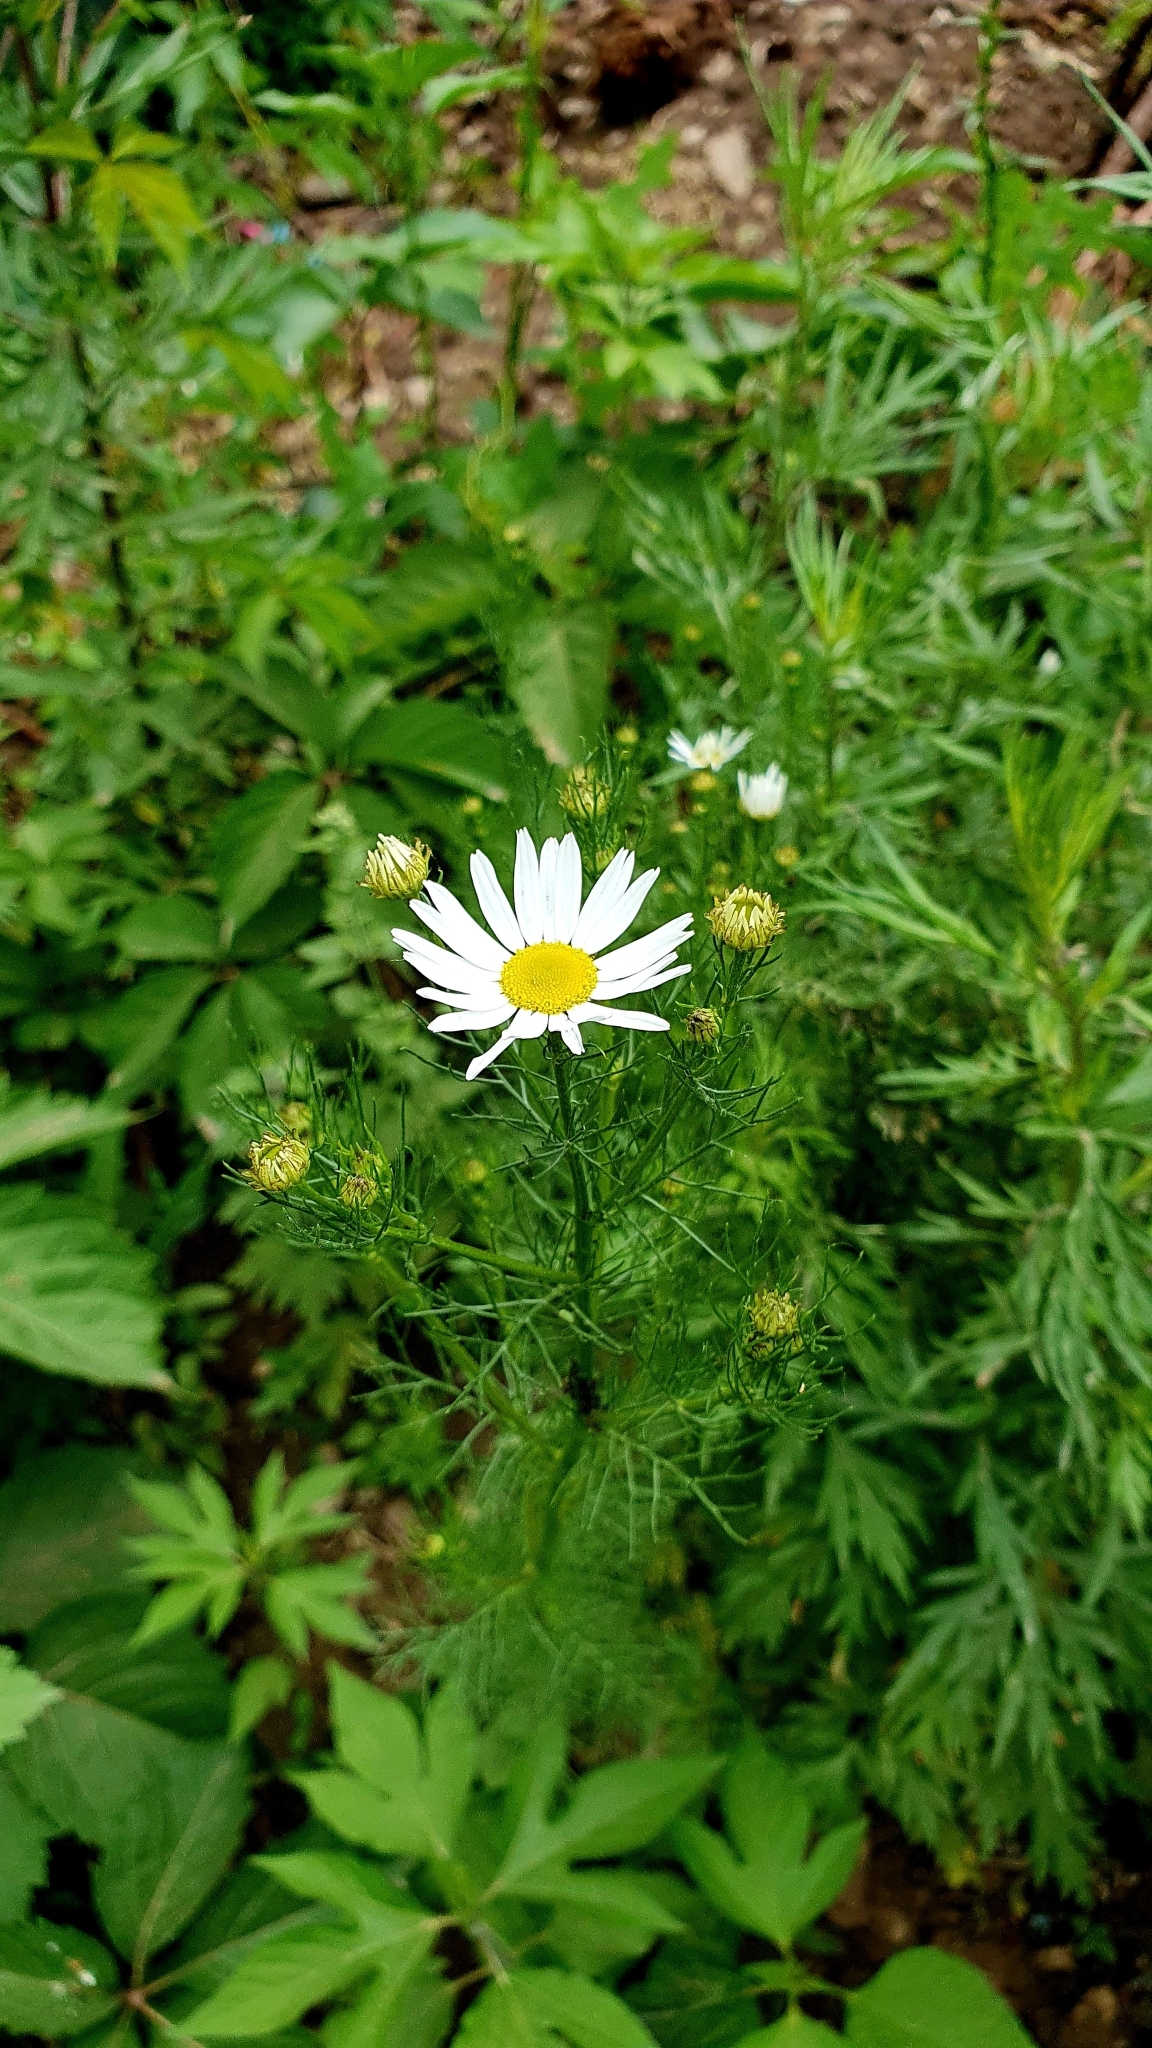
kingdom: Plantae
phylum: Tracheophyta
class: Magnoliopsida
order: Asterales
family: Asteraceae
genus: Tripleurospermum
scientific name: Tripleurospermum inodorum
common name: Scentless mayweed
